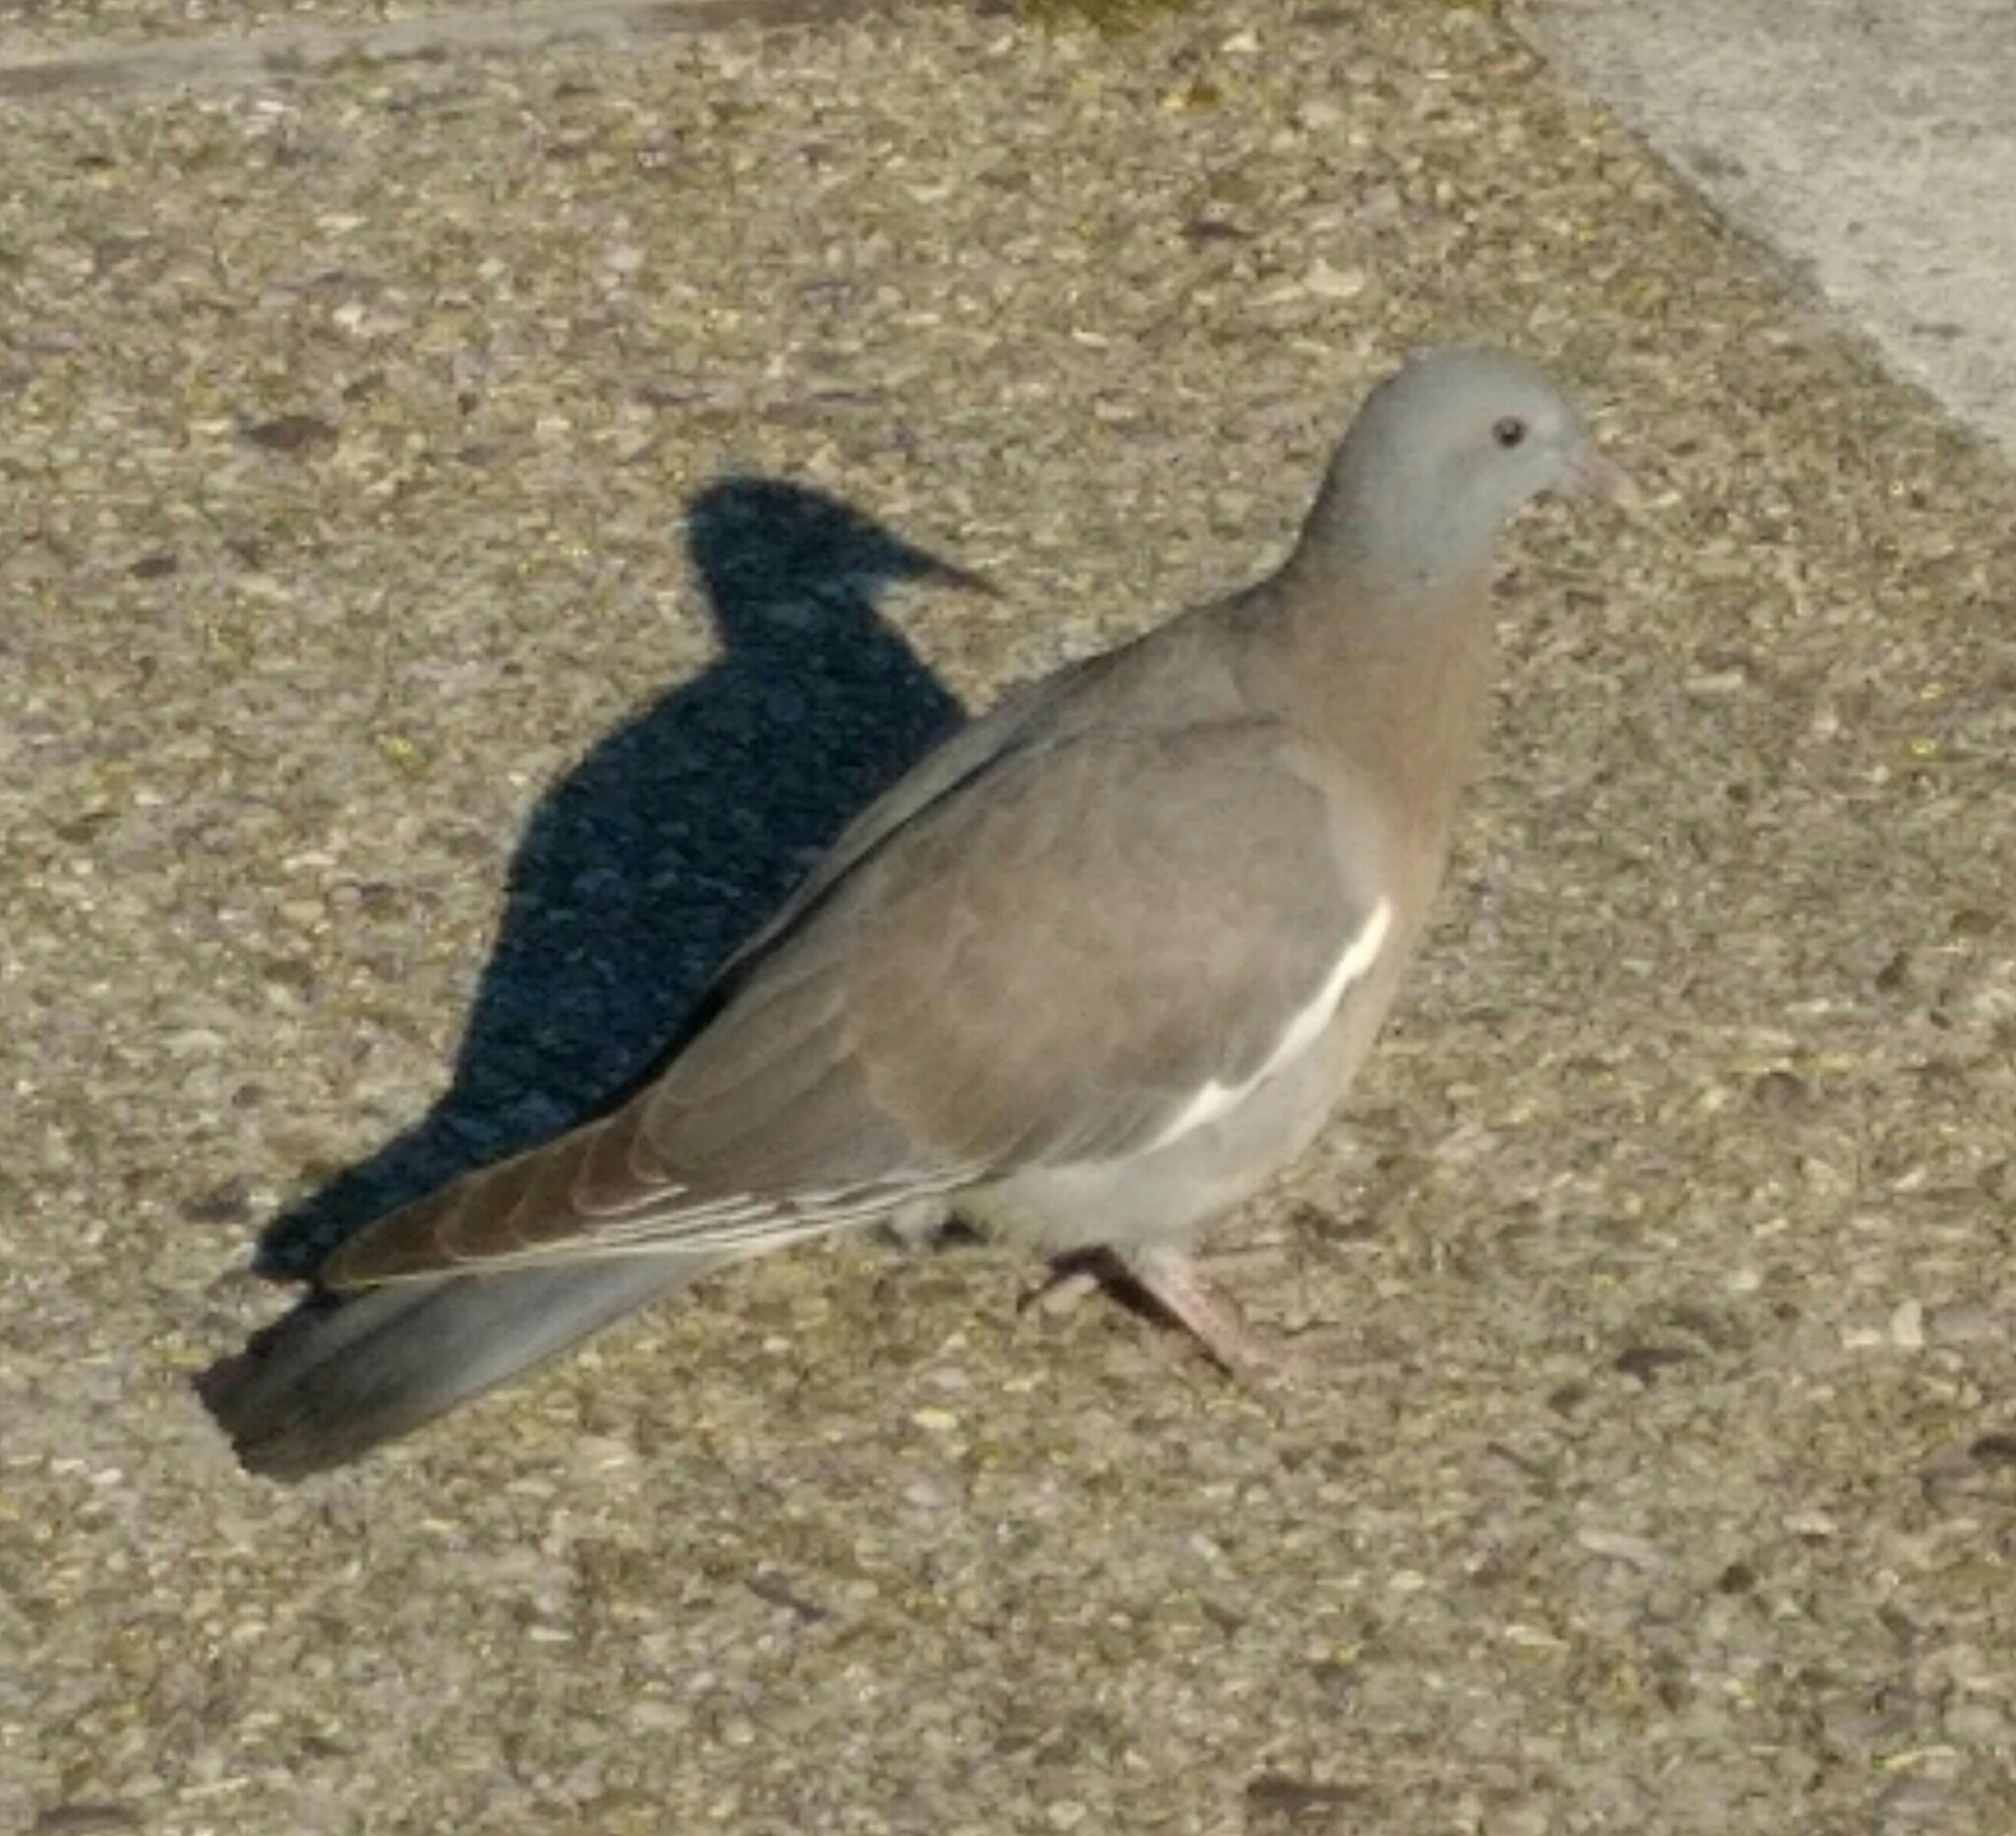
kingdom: Animalia
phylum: Chordata
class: Aves
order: Columbiformes
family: Columbidae
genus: Columba
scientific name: Columba palumbus
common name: Common wood pigeon
